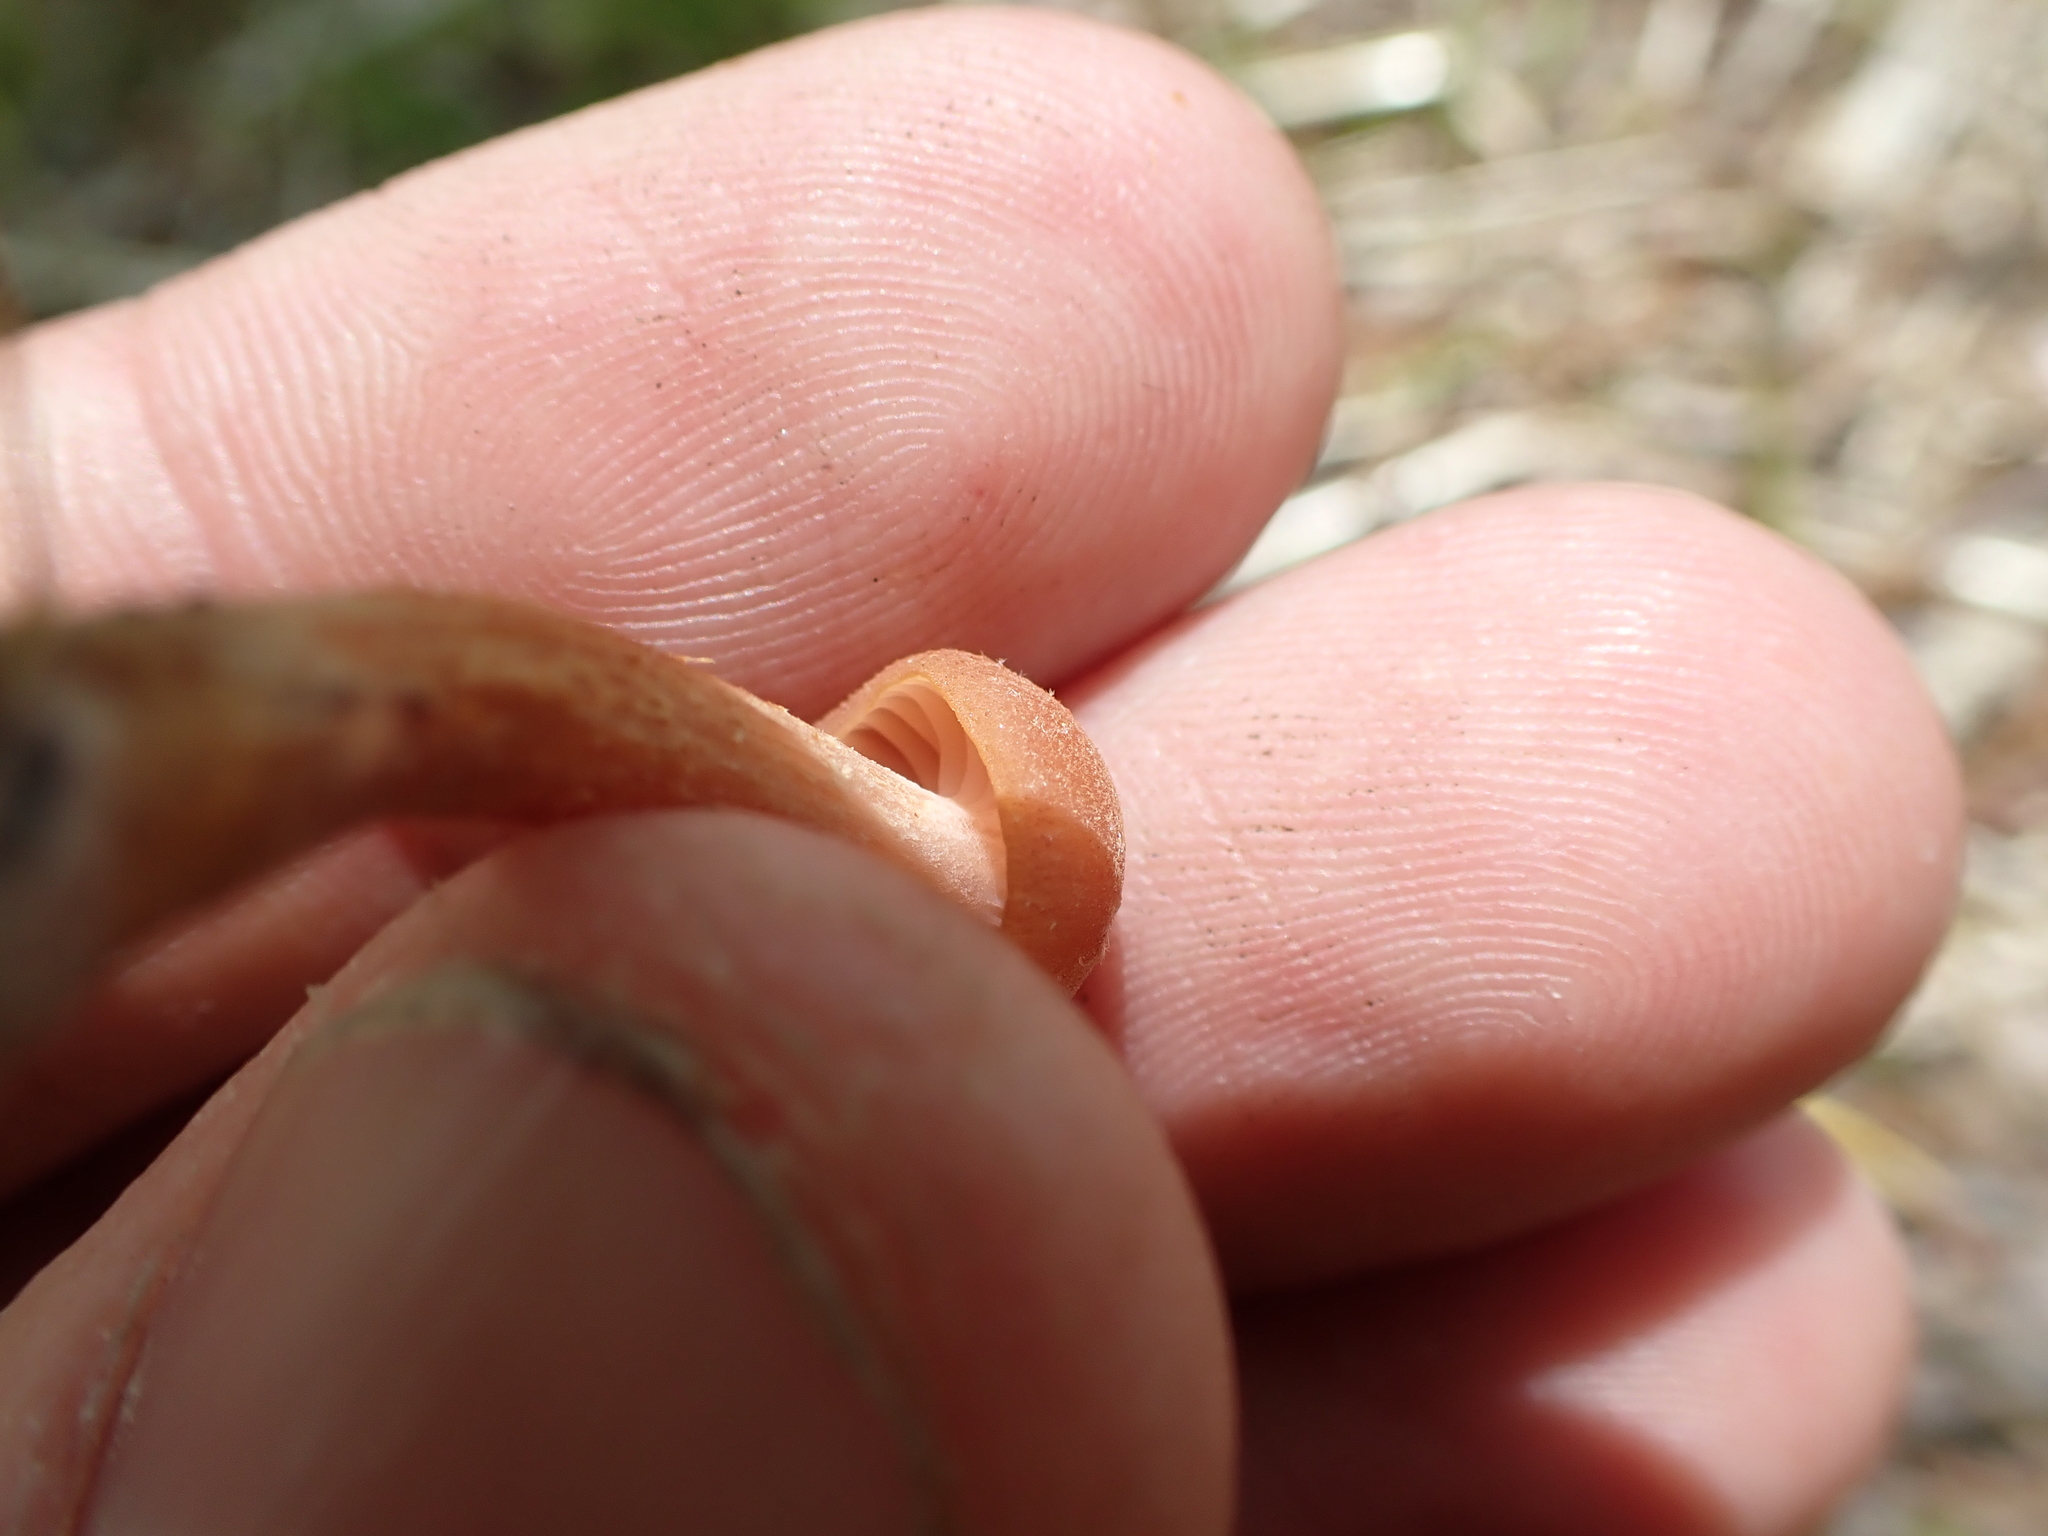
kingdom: Fungi
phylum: Basidiomycota
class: Agaricomycetes
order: Agaricales
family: Hydnangiaceae
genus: Laccaria
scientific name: Laccaria laccata
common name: Deceiver
